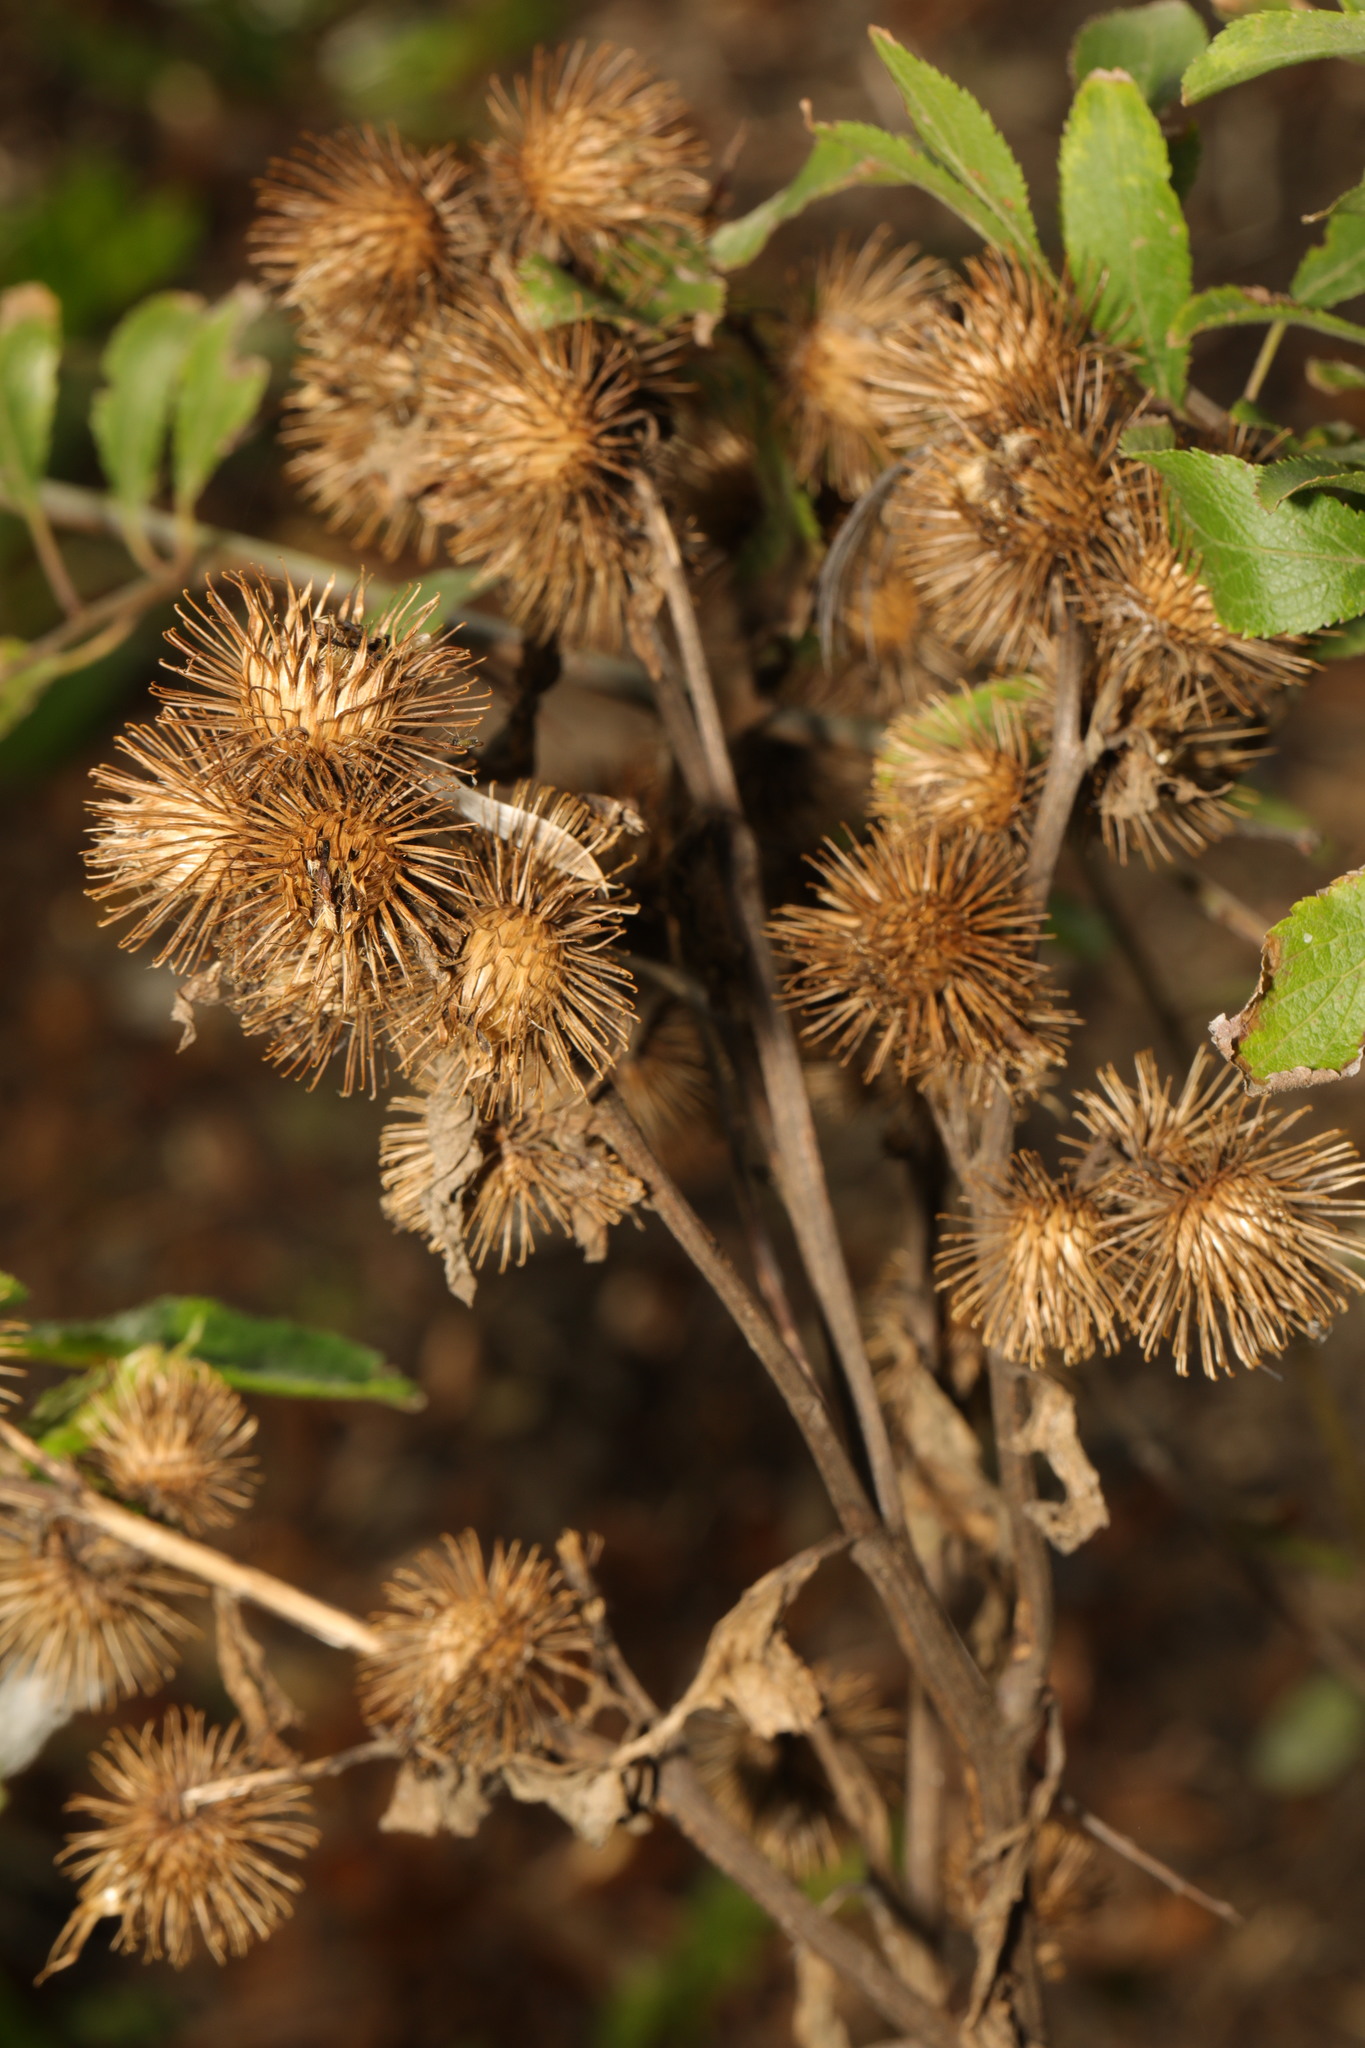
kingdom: Plantae
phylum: Tracheophyta
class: Magnoliopsida
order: Asterales
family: Asteraceae
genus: Arctium
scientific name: Arctium minus
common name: Lesser burdock
